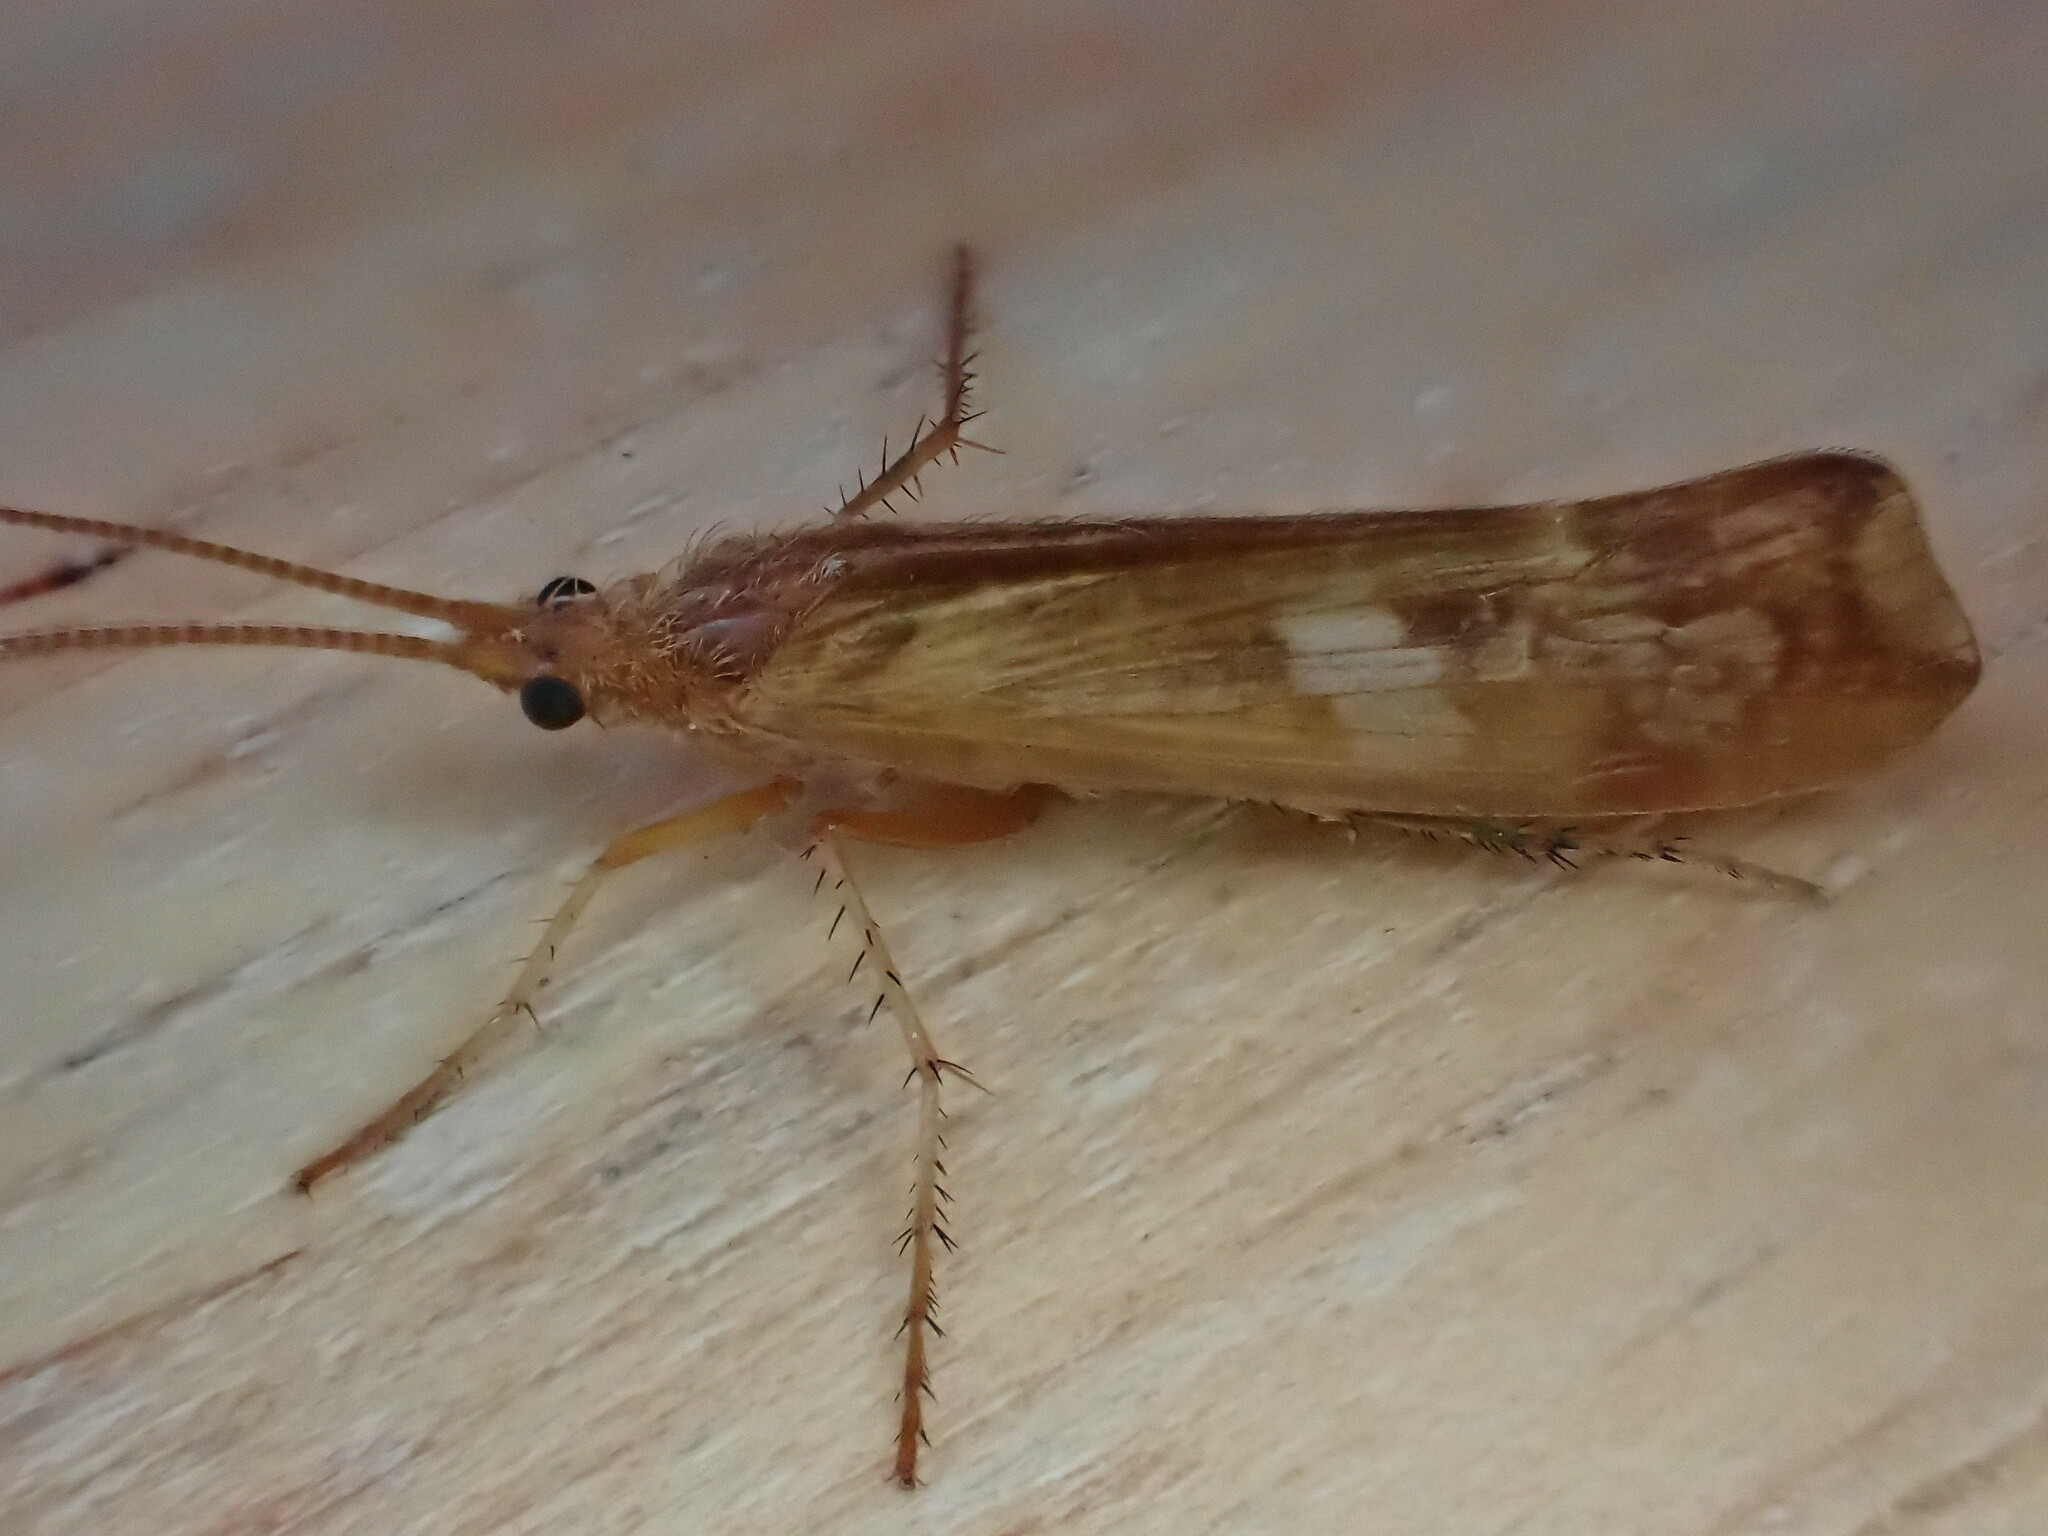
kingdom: Animalia
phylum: Arthropoda
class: Insecta
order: Trichoptera
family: Limnephilidae
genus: Limnephilus
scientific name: Limnephilus lunatus
